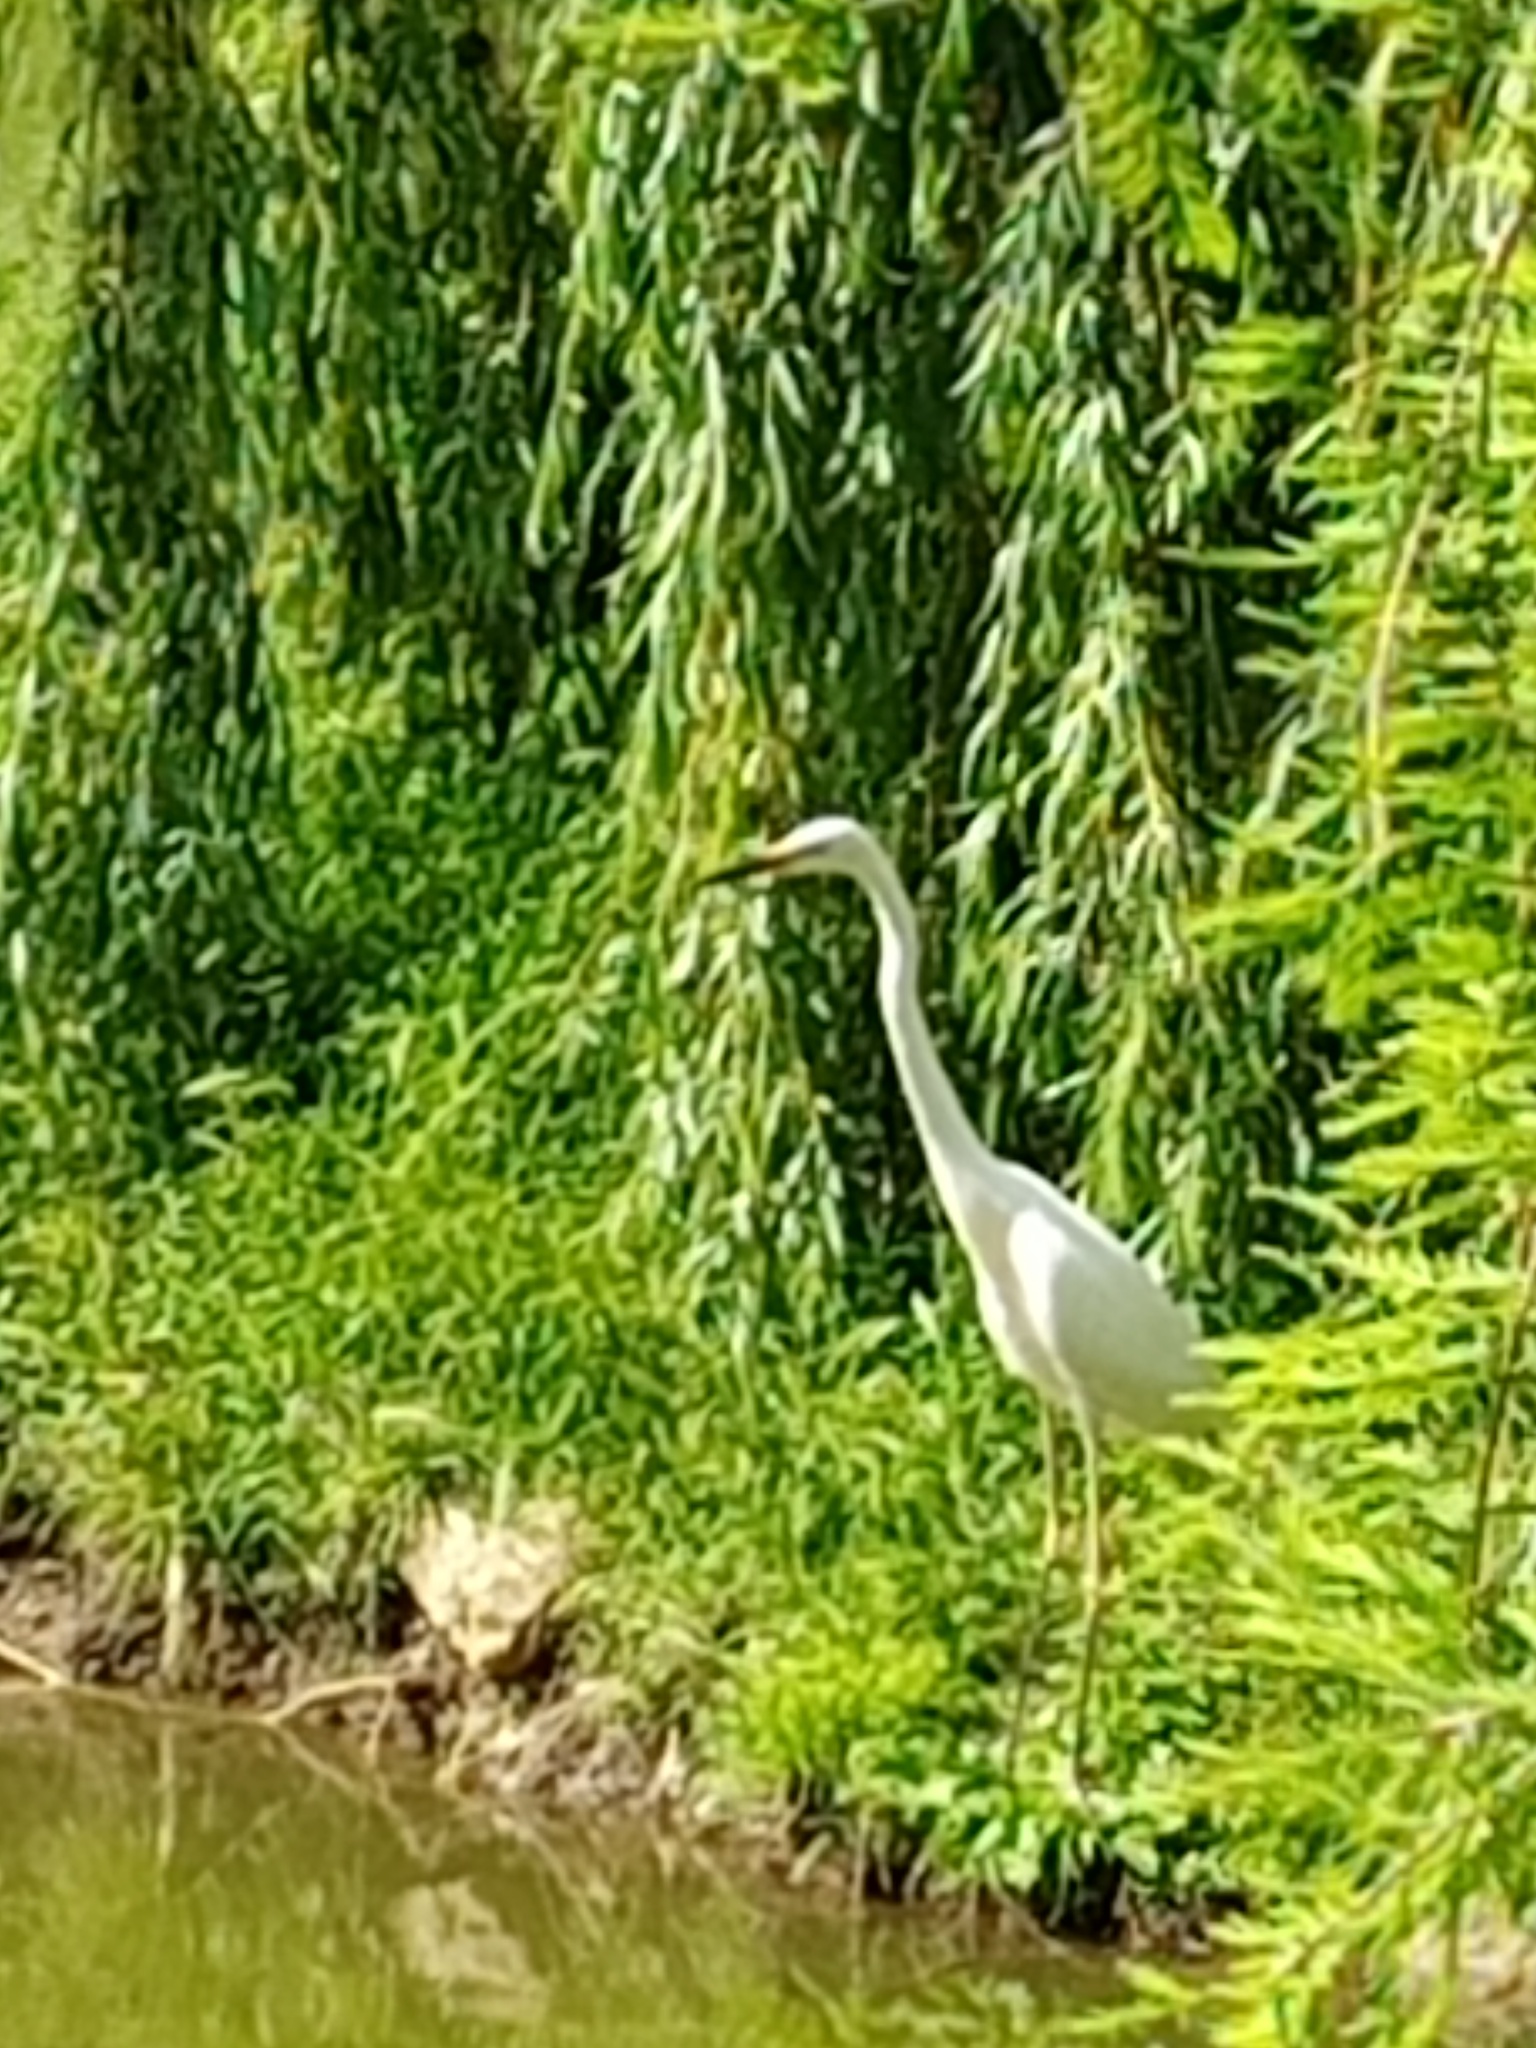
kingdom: Animalia
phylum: Chordata
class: Aves
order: Pelecaniformes
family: Ardeidae
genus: Ardea
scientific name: Ardea alba
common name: Great egret
